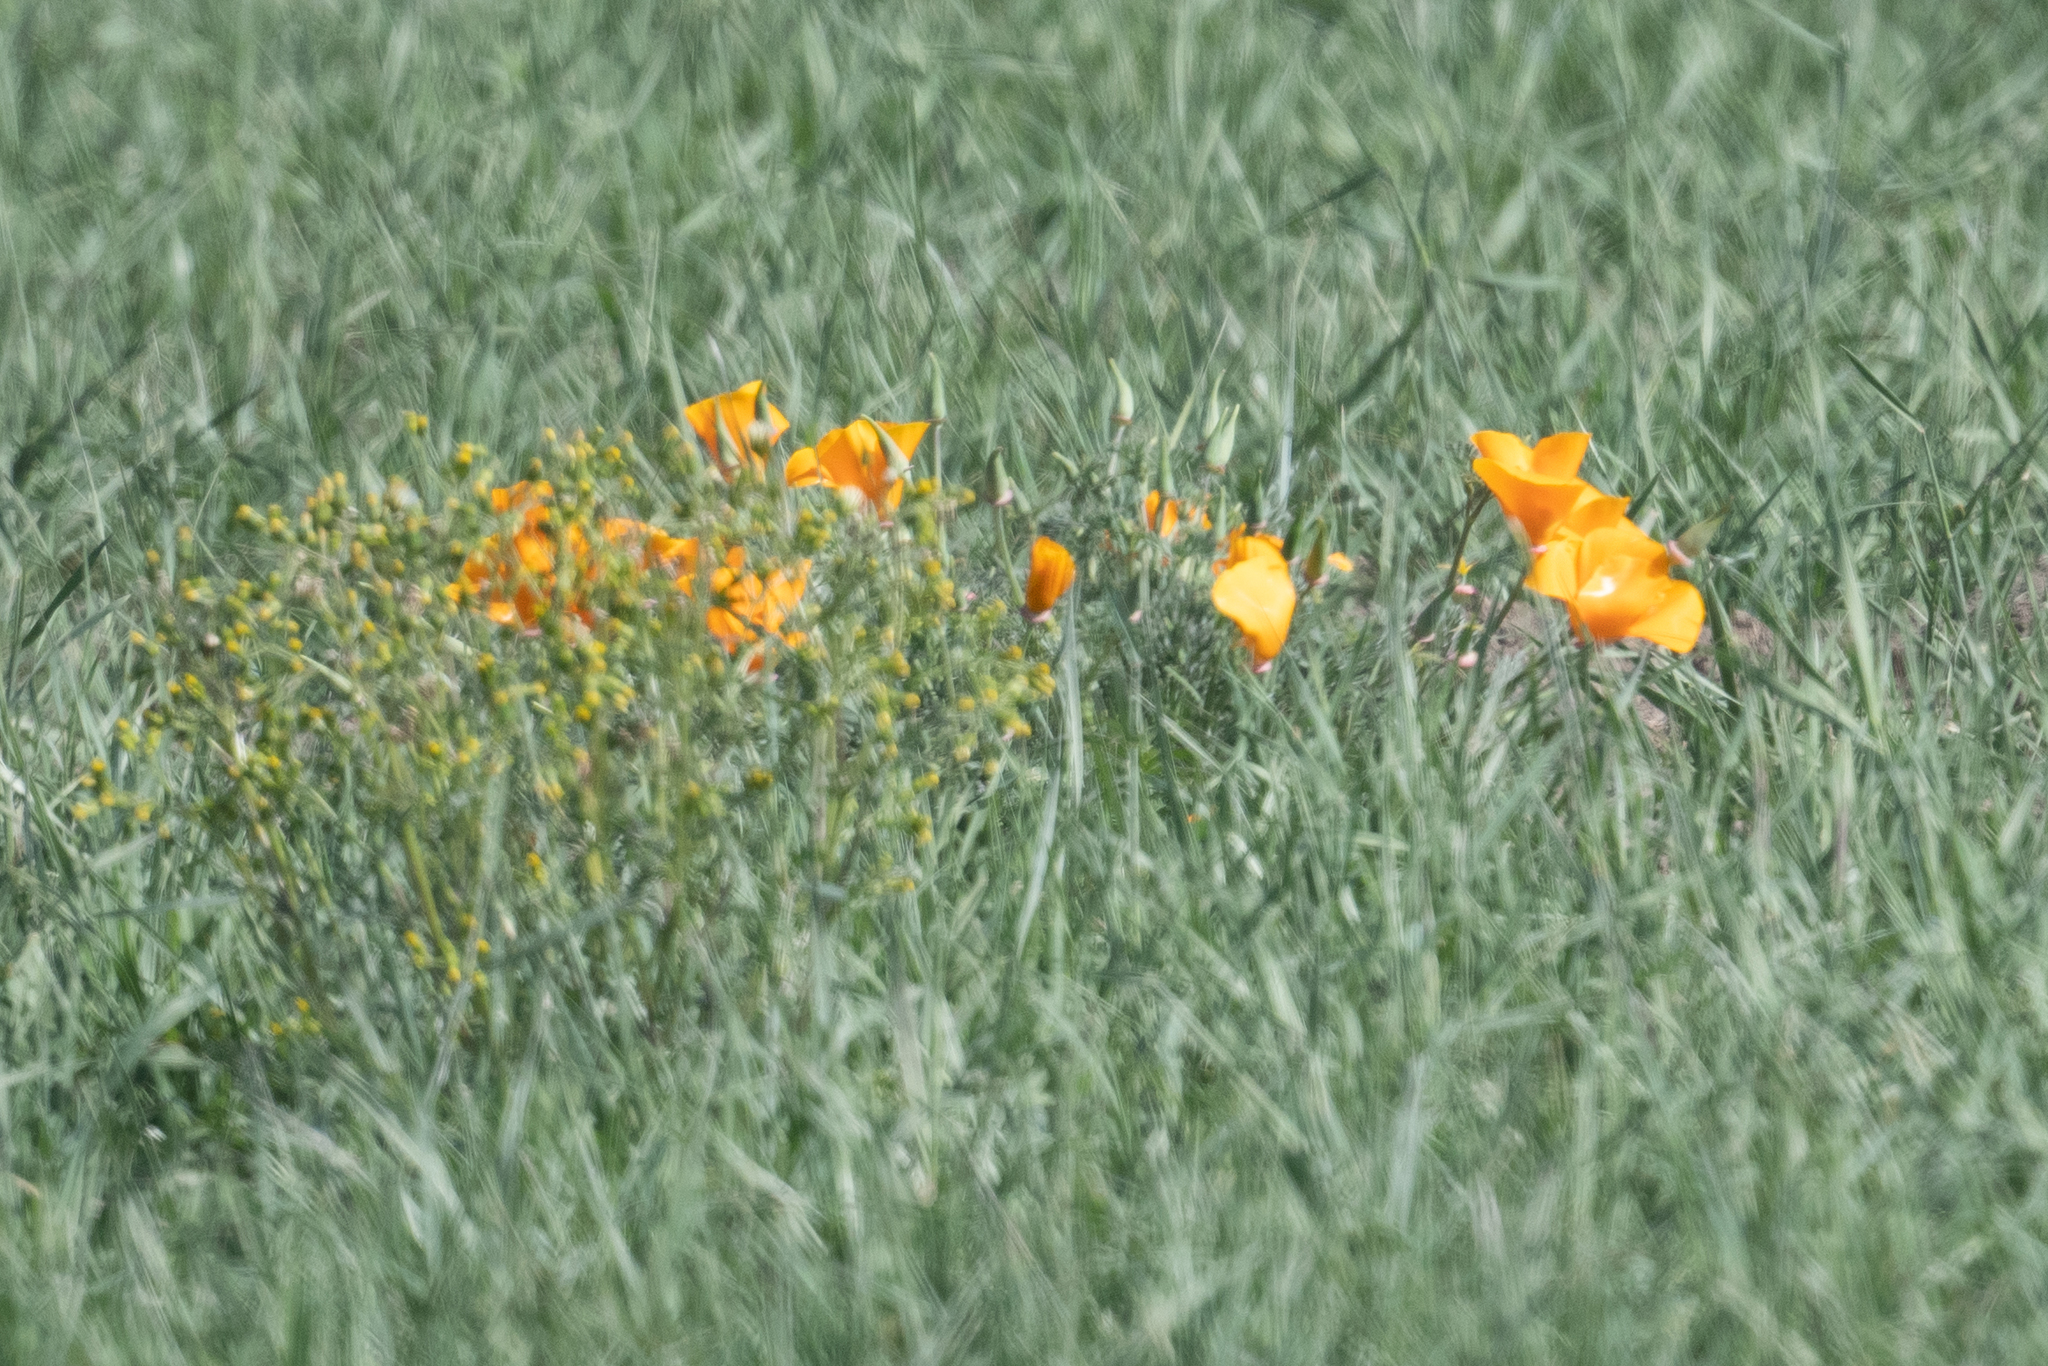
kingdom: Plantae
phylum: Tracheophyta
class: Magnoliopsida
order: Ranunculales
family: Papaveraceae
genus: Eschscholzia
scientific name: Eschscholzia californica
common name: California poppy
